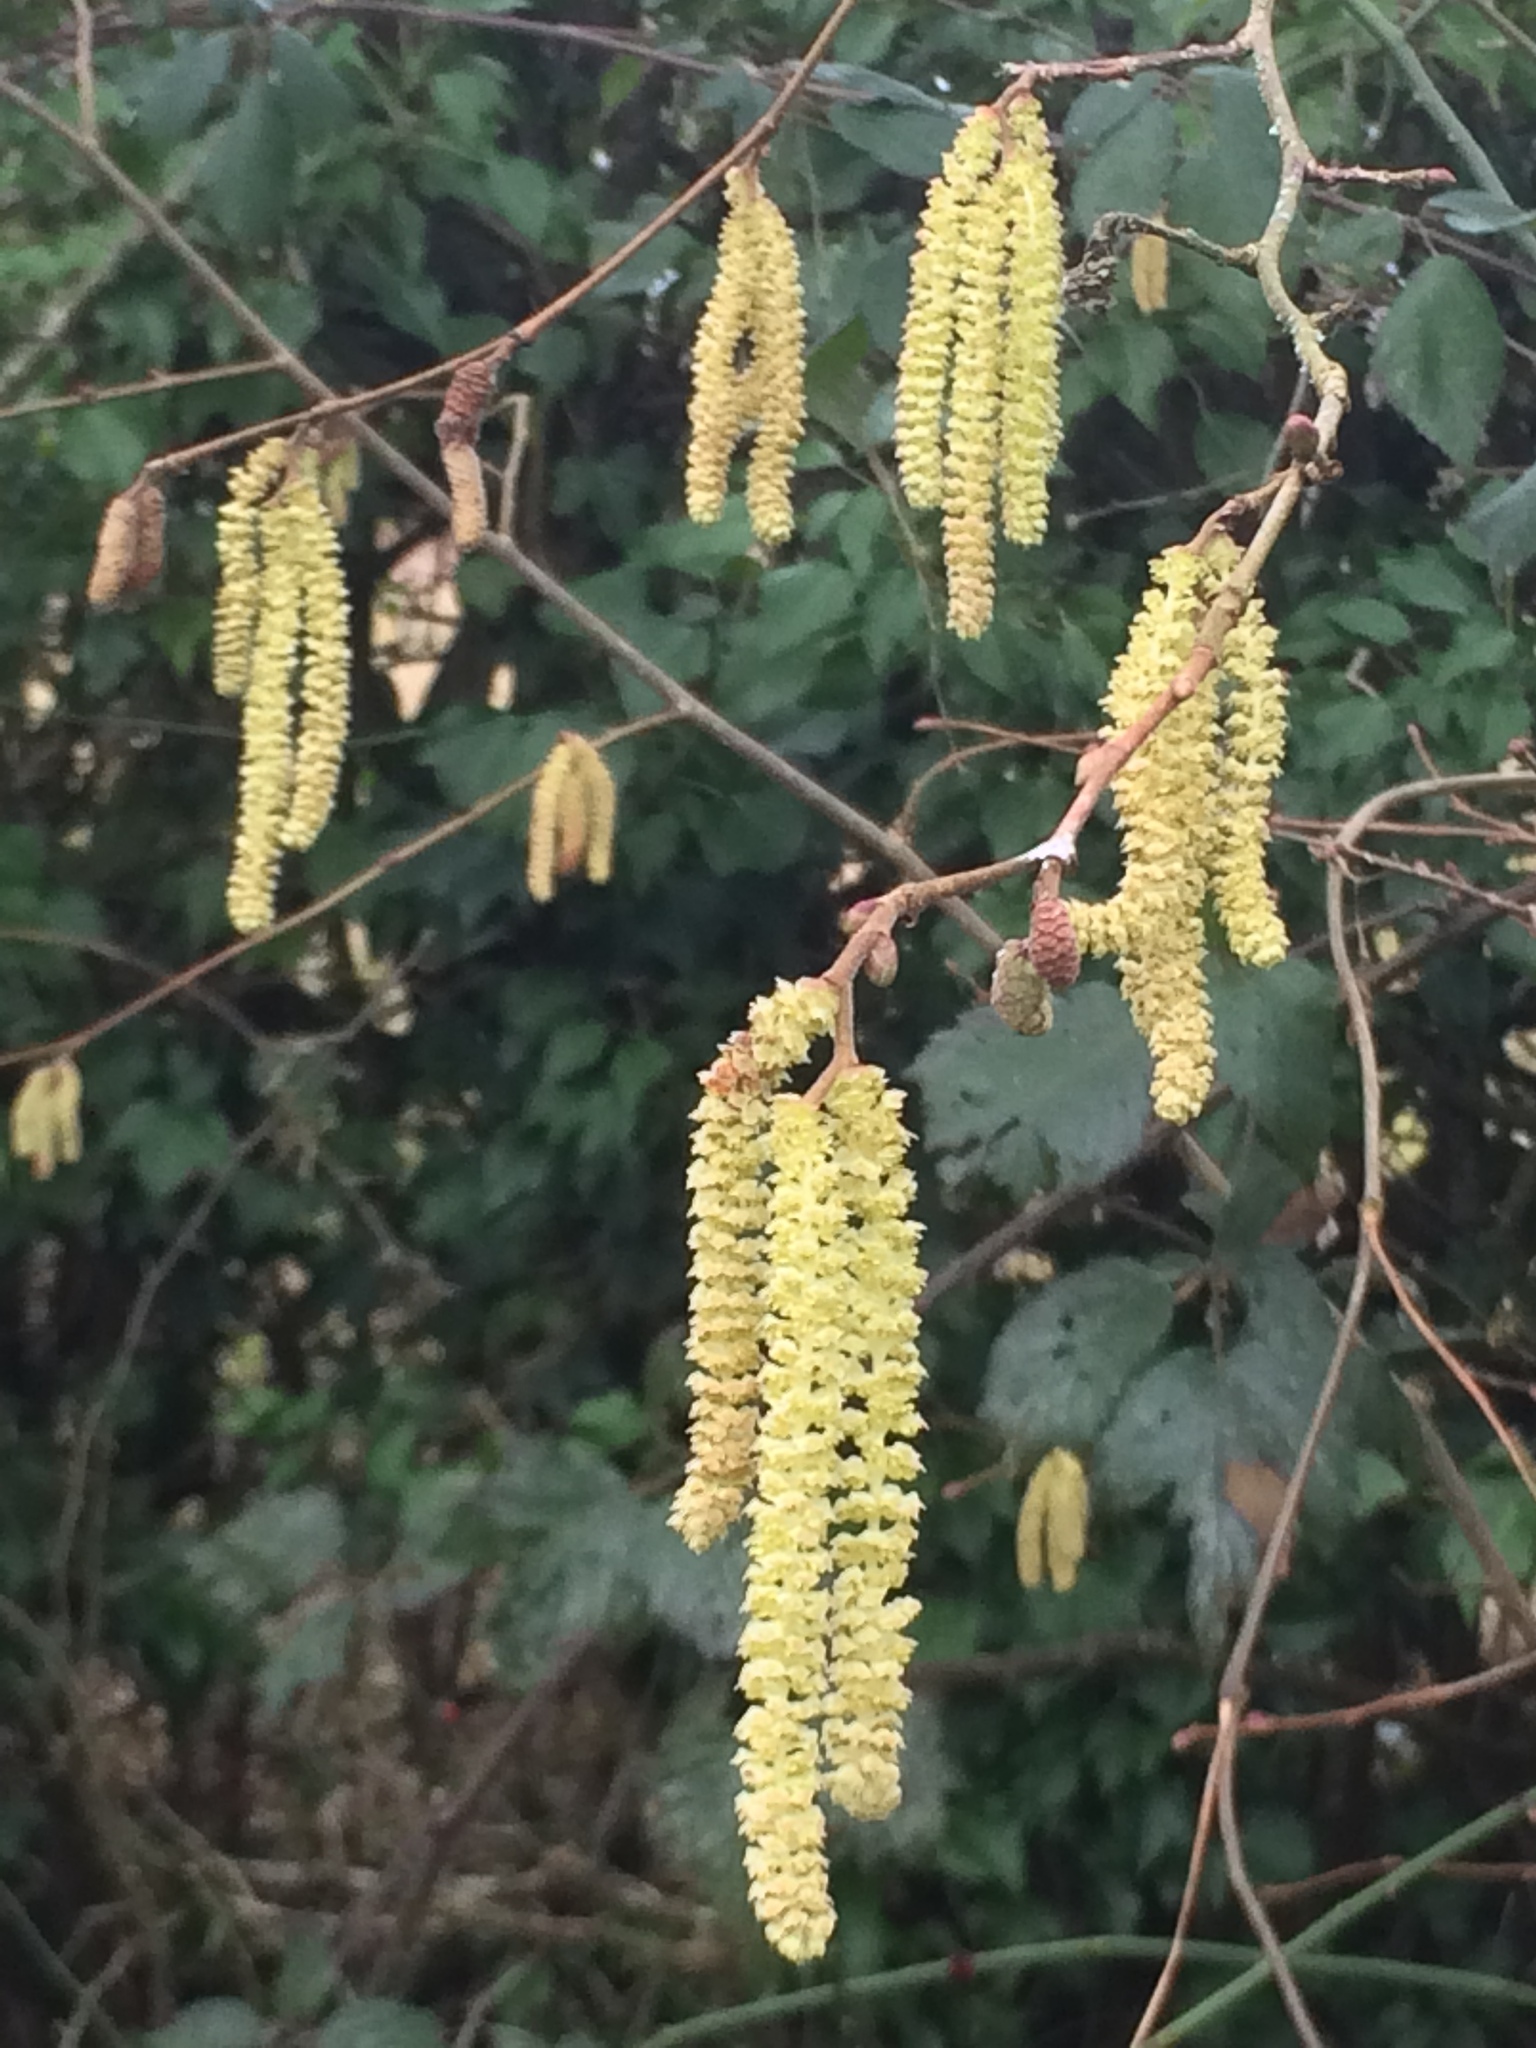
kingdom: Plantae
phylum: Tracheophyta
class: Magnoliopsida
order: Fagales
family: Betulaceae
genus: Corylus
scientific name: Corylus avellana
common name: European hazel
